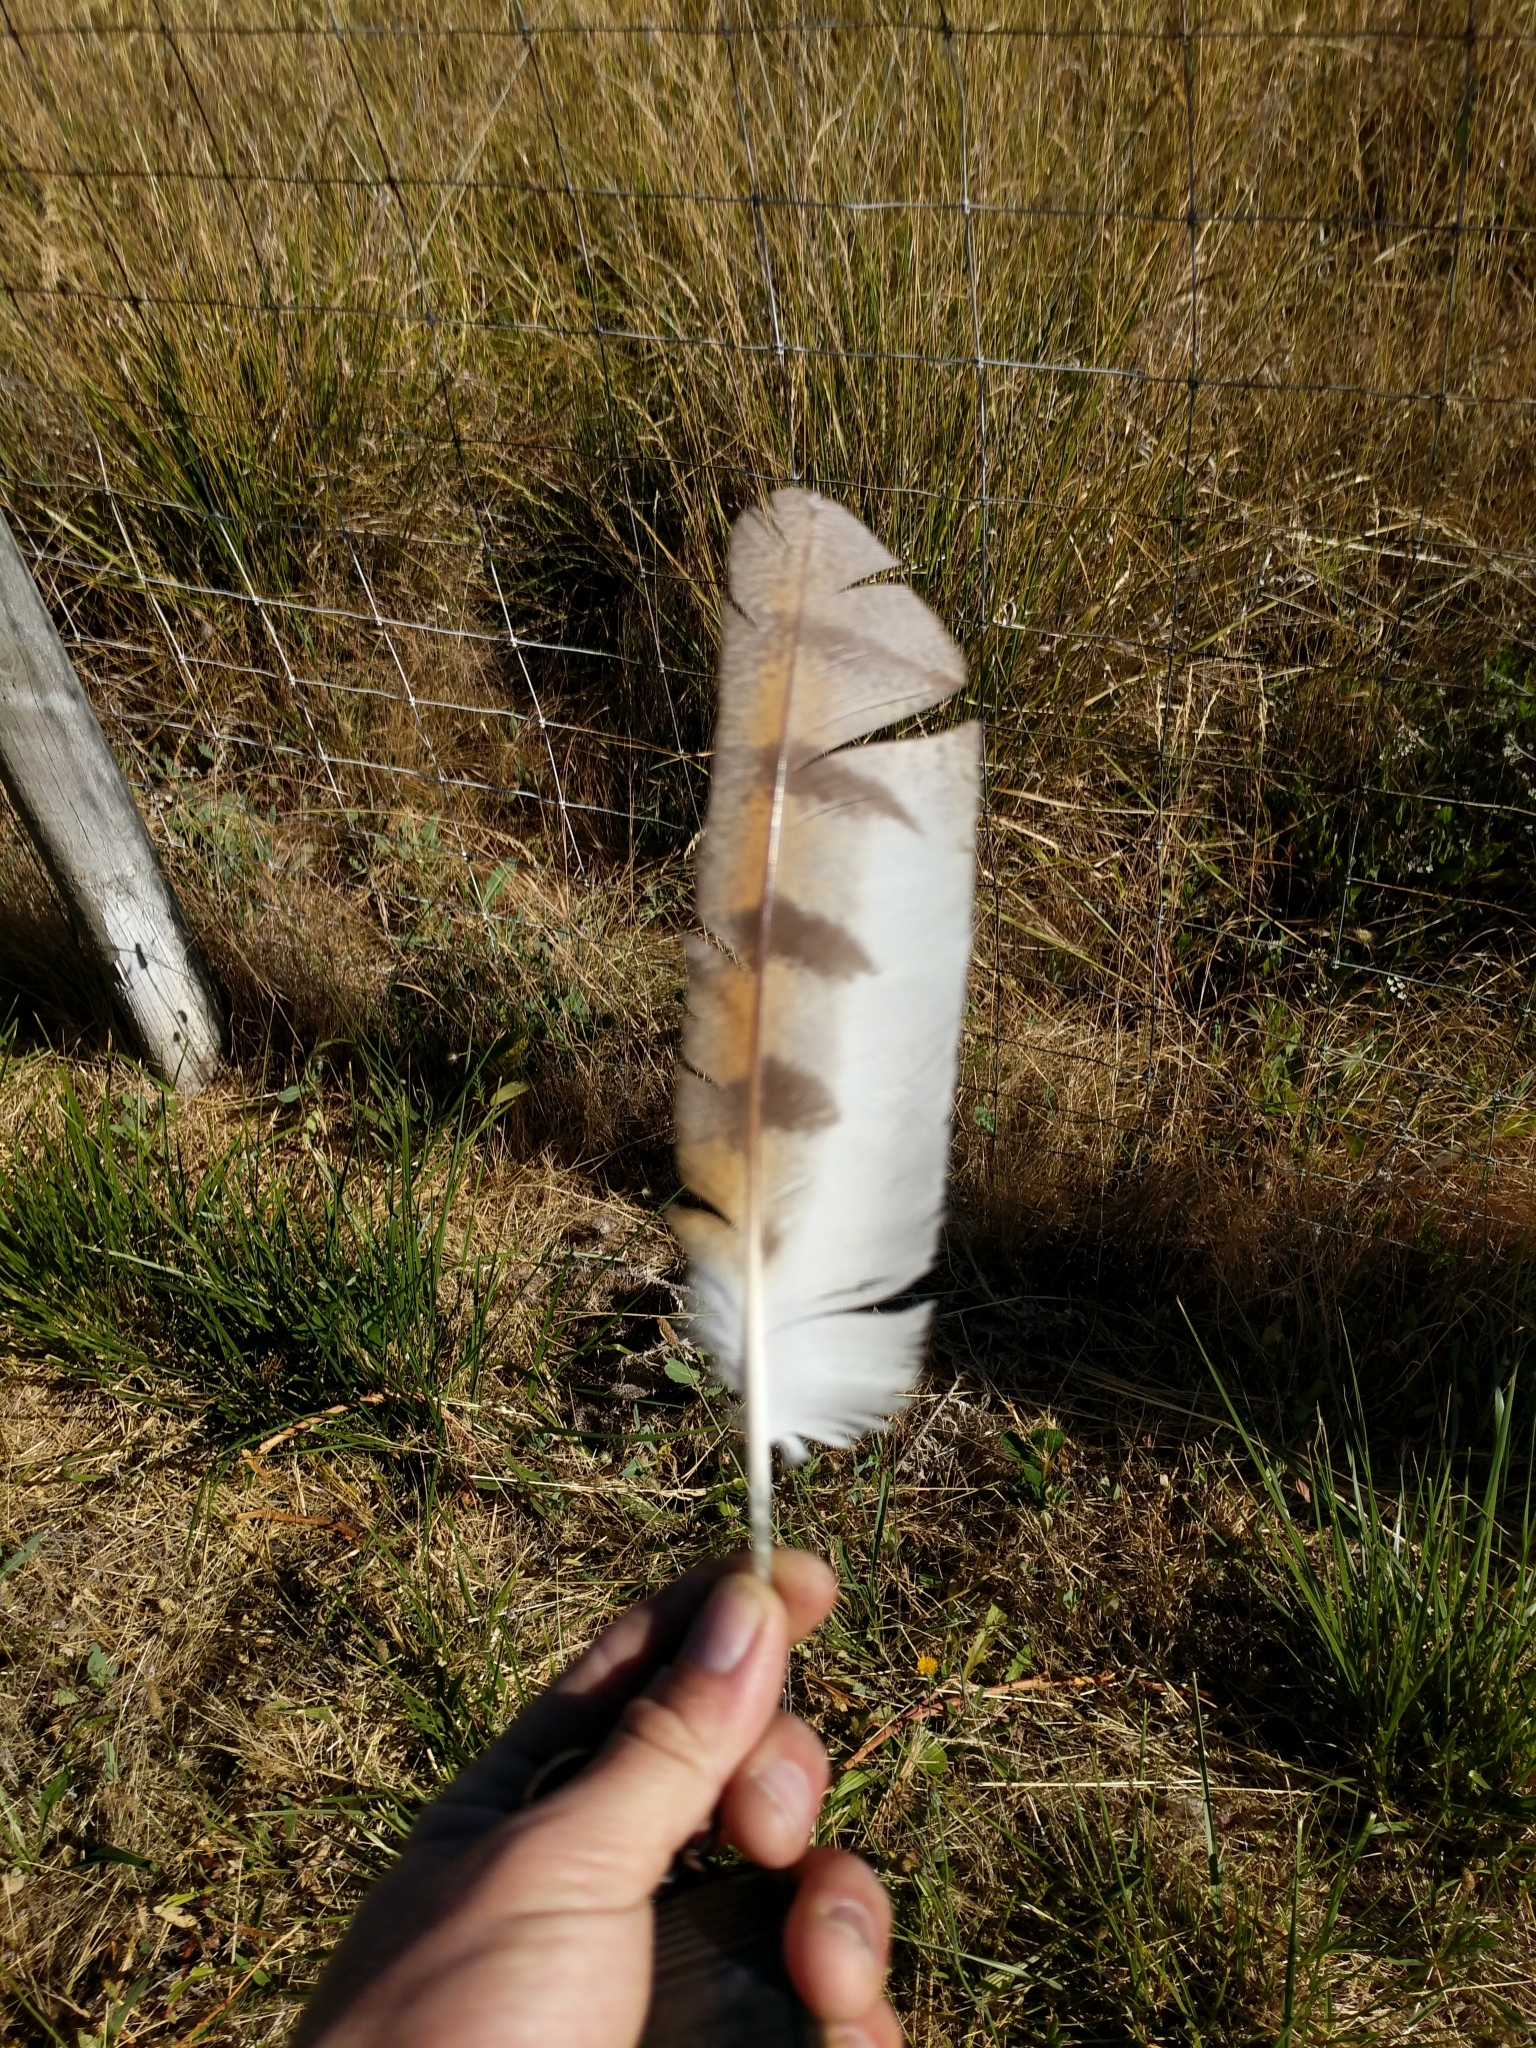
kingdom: Animalia
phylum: Chordata
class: Aves
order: Strigiformes
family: Tytonidae
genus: Tyto
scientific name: Tyto alba
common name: Barn owl
